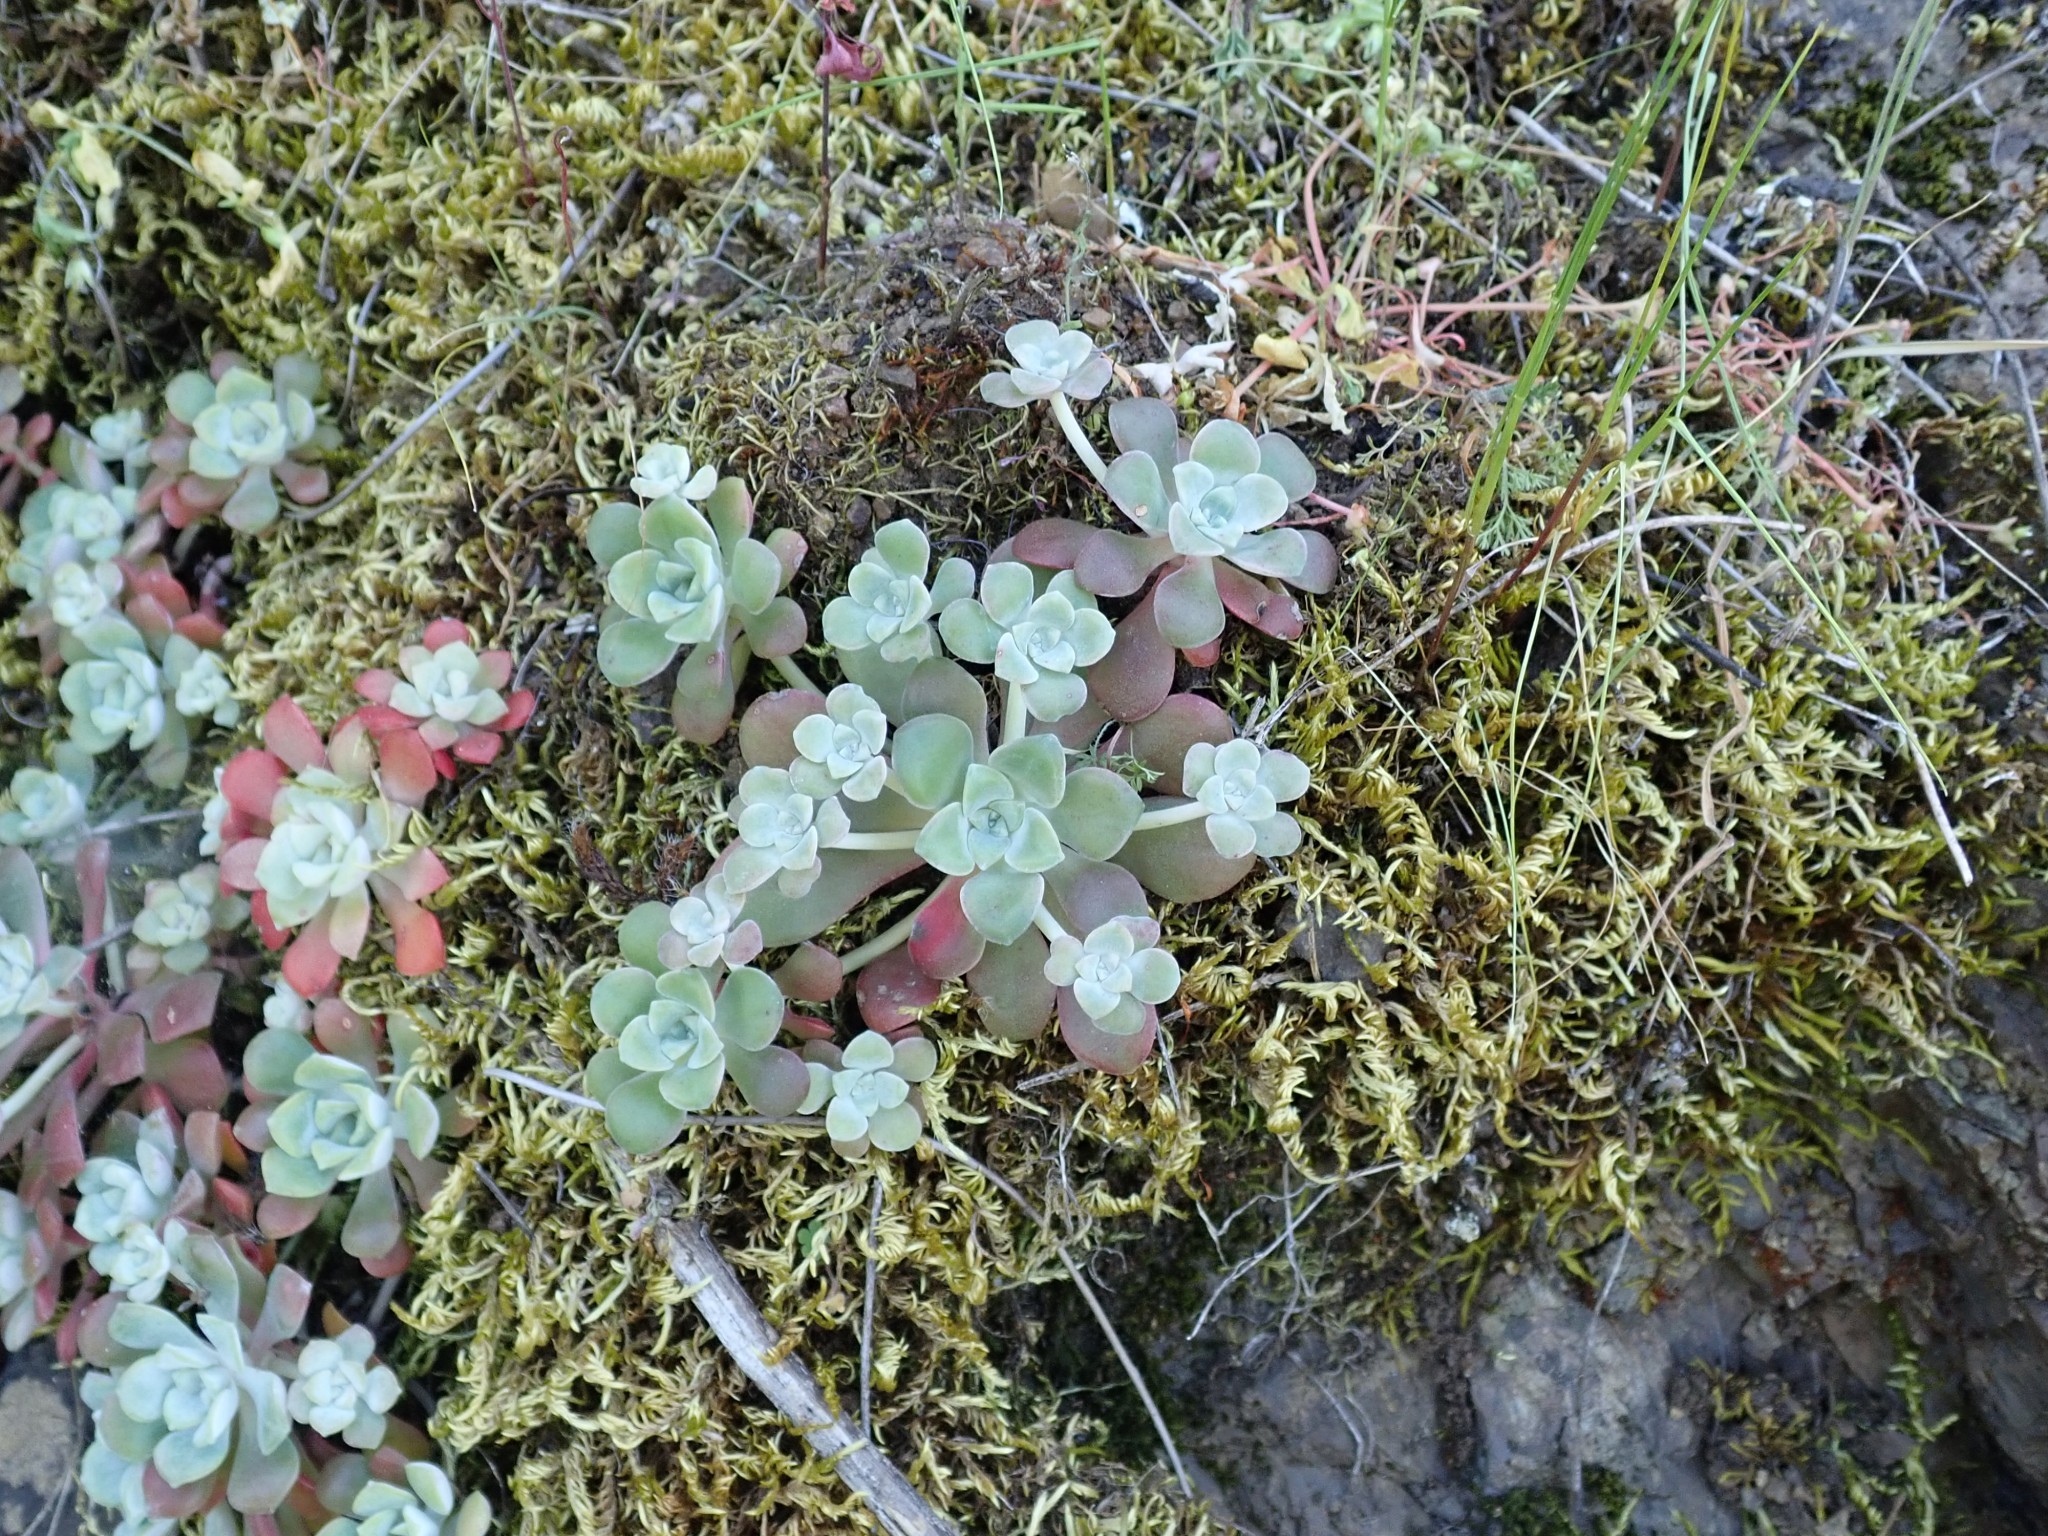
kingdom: Plantae
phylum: Tracheophyta
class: Magnoliopsida
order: Saxifragales
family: Crassulaceae
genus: Sedum
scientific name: Sedum spathulifolium
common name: Colorado stonecrop
